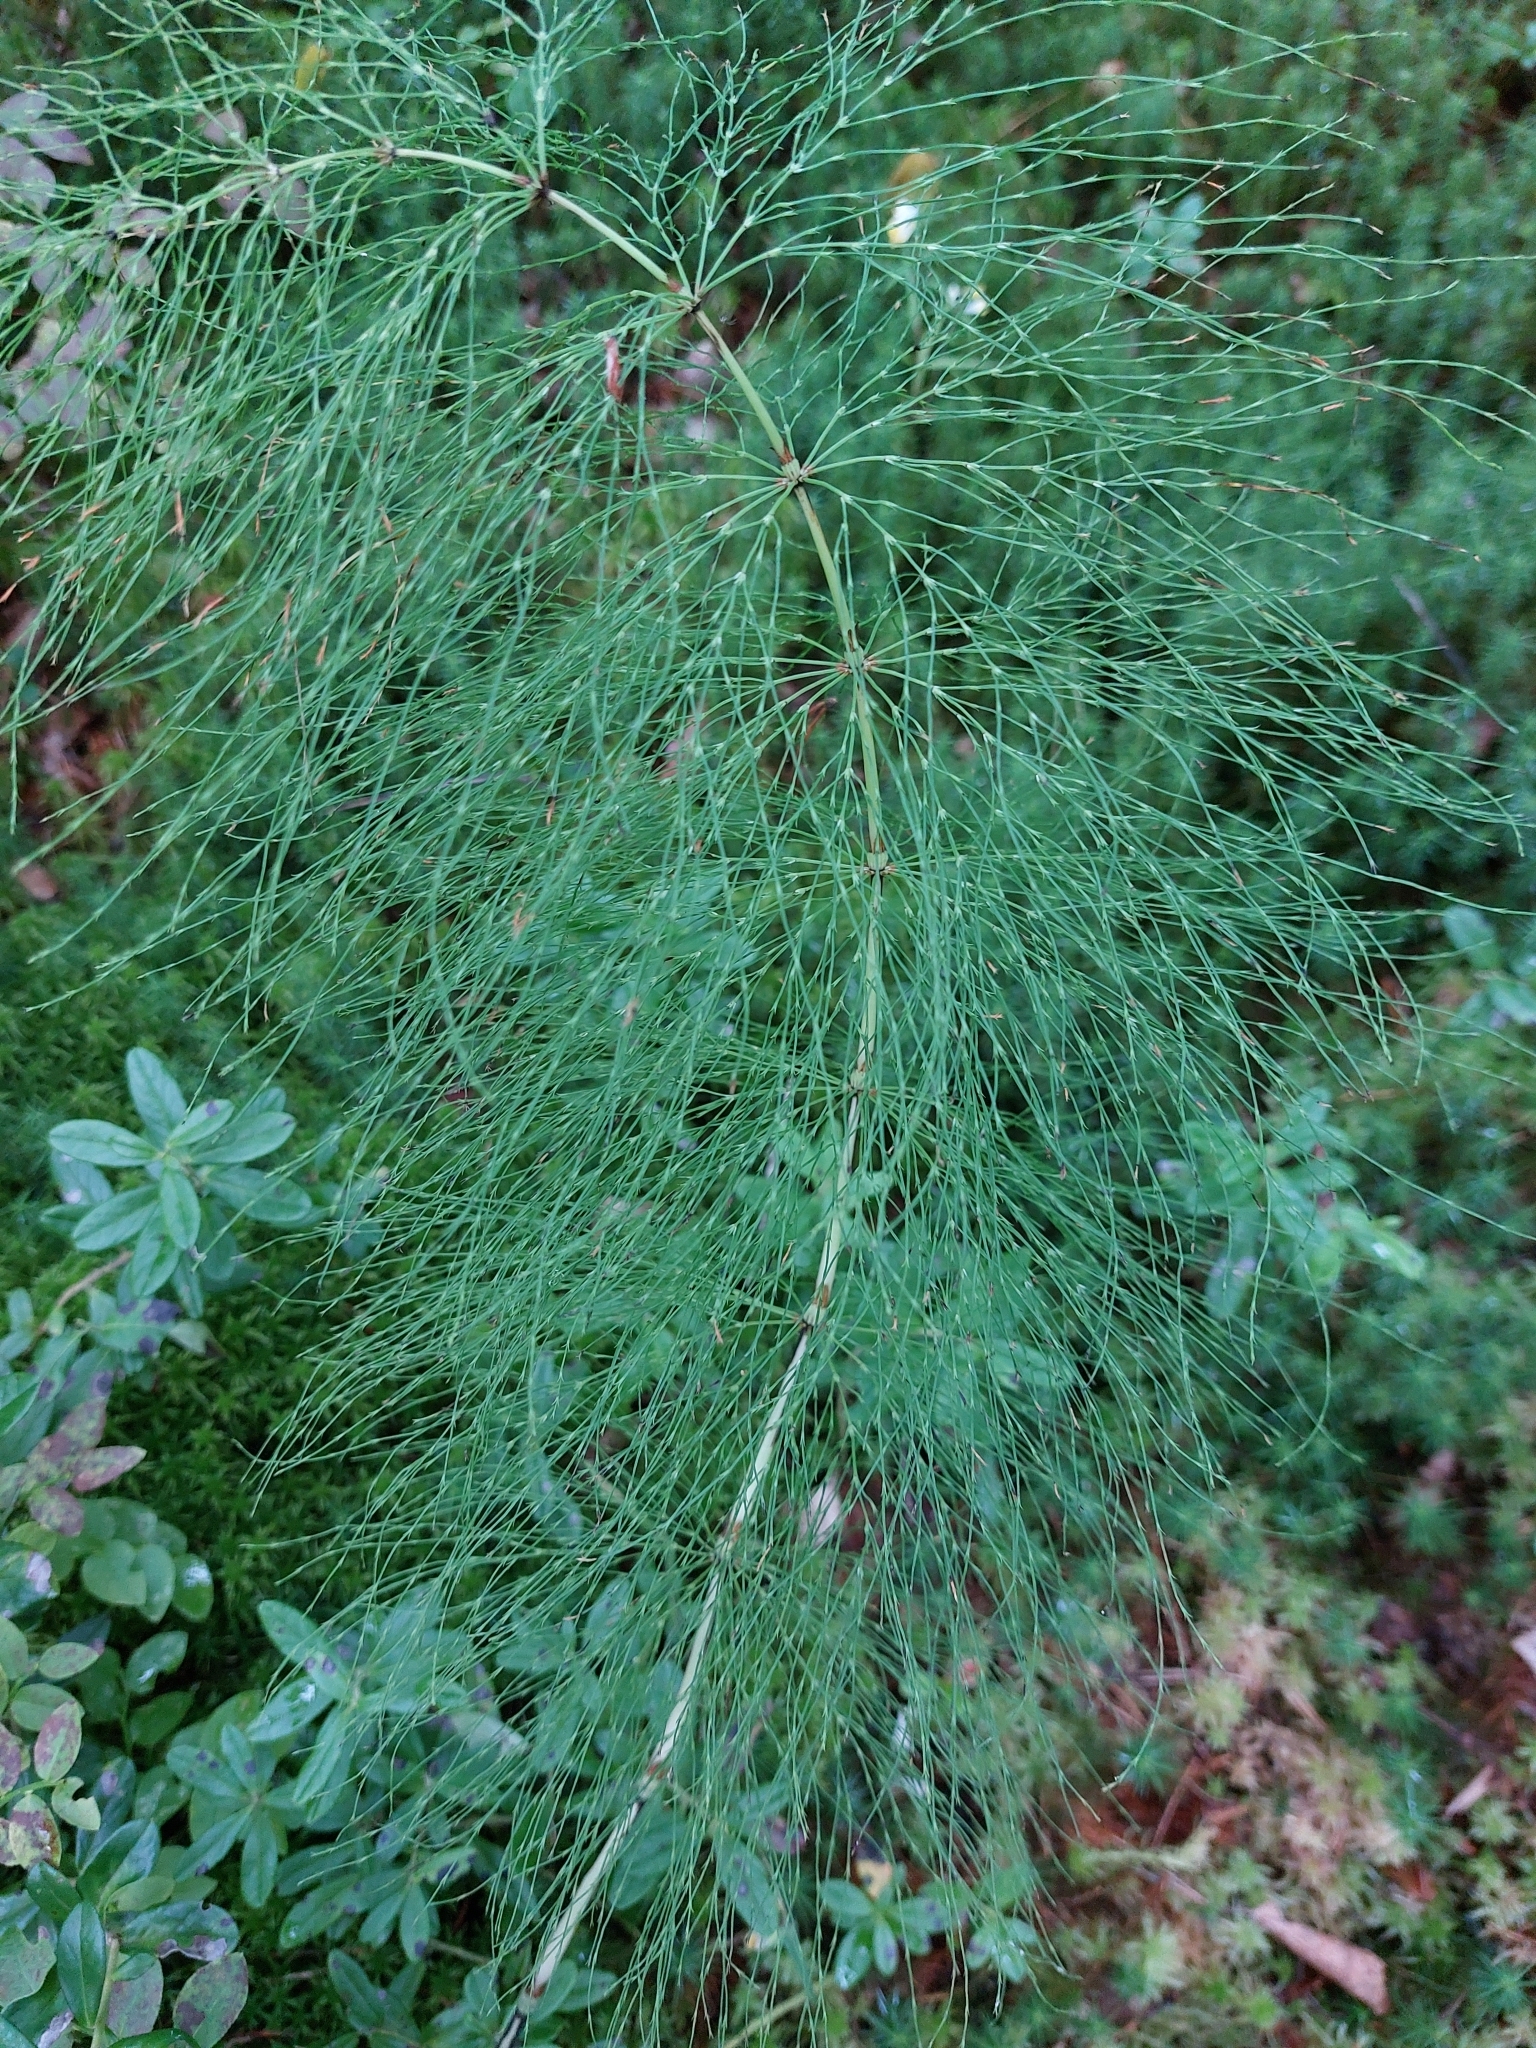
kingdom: Plantae
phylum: Tracheophyta
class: Polypodiopsida
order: Equisetales
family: Equisetaceae
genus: Equisetum
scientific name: Equisetum sylvaticum
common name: Wood horsetail
